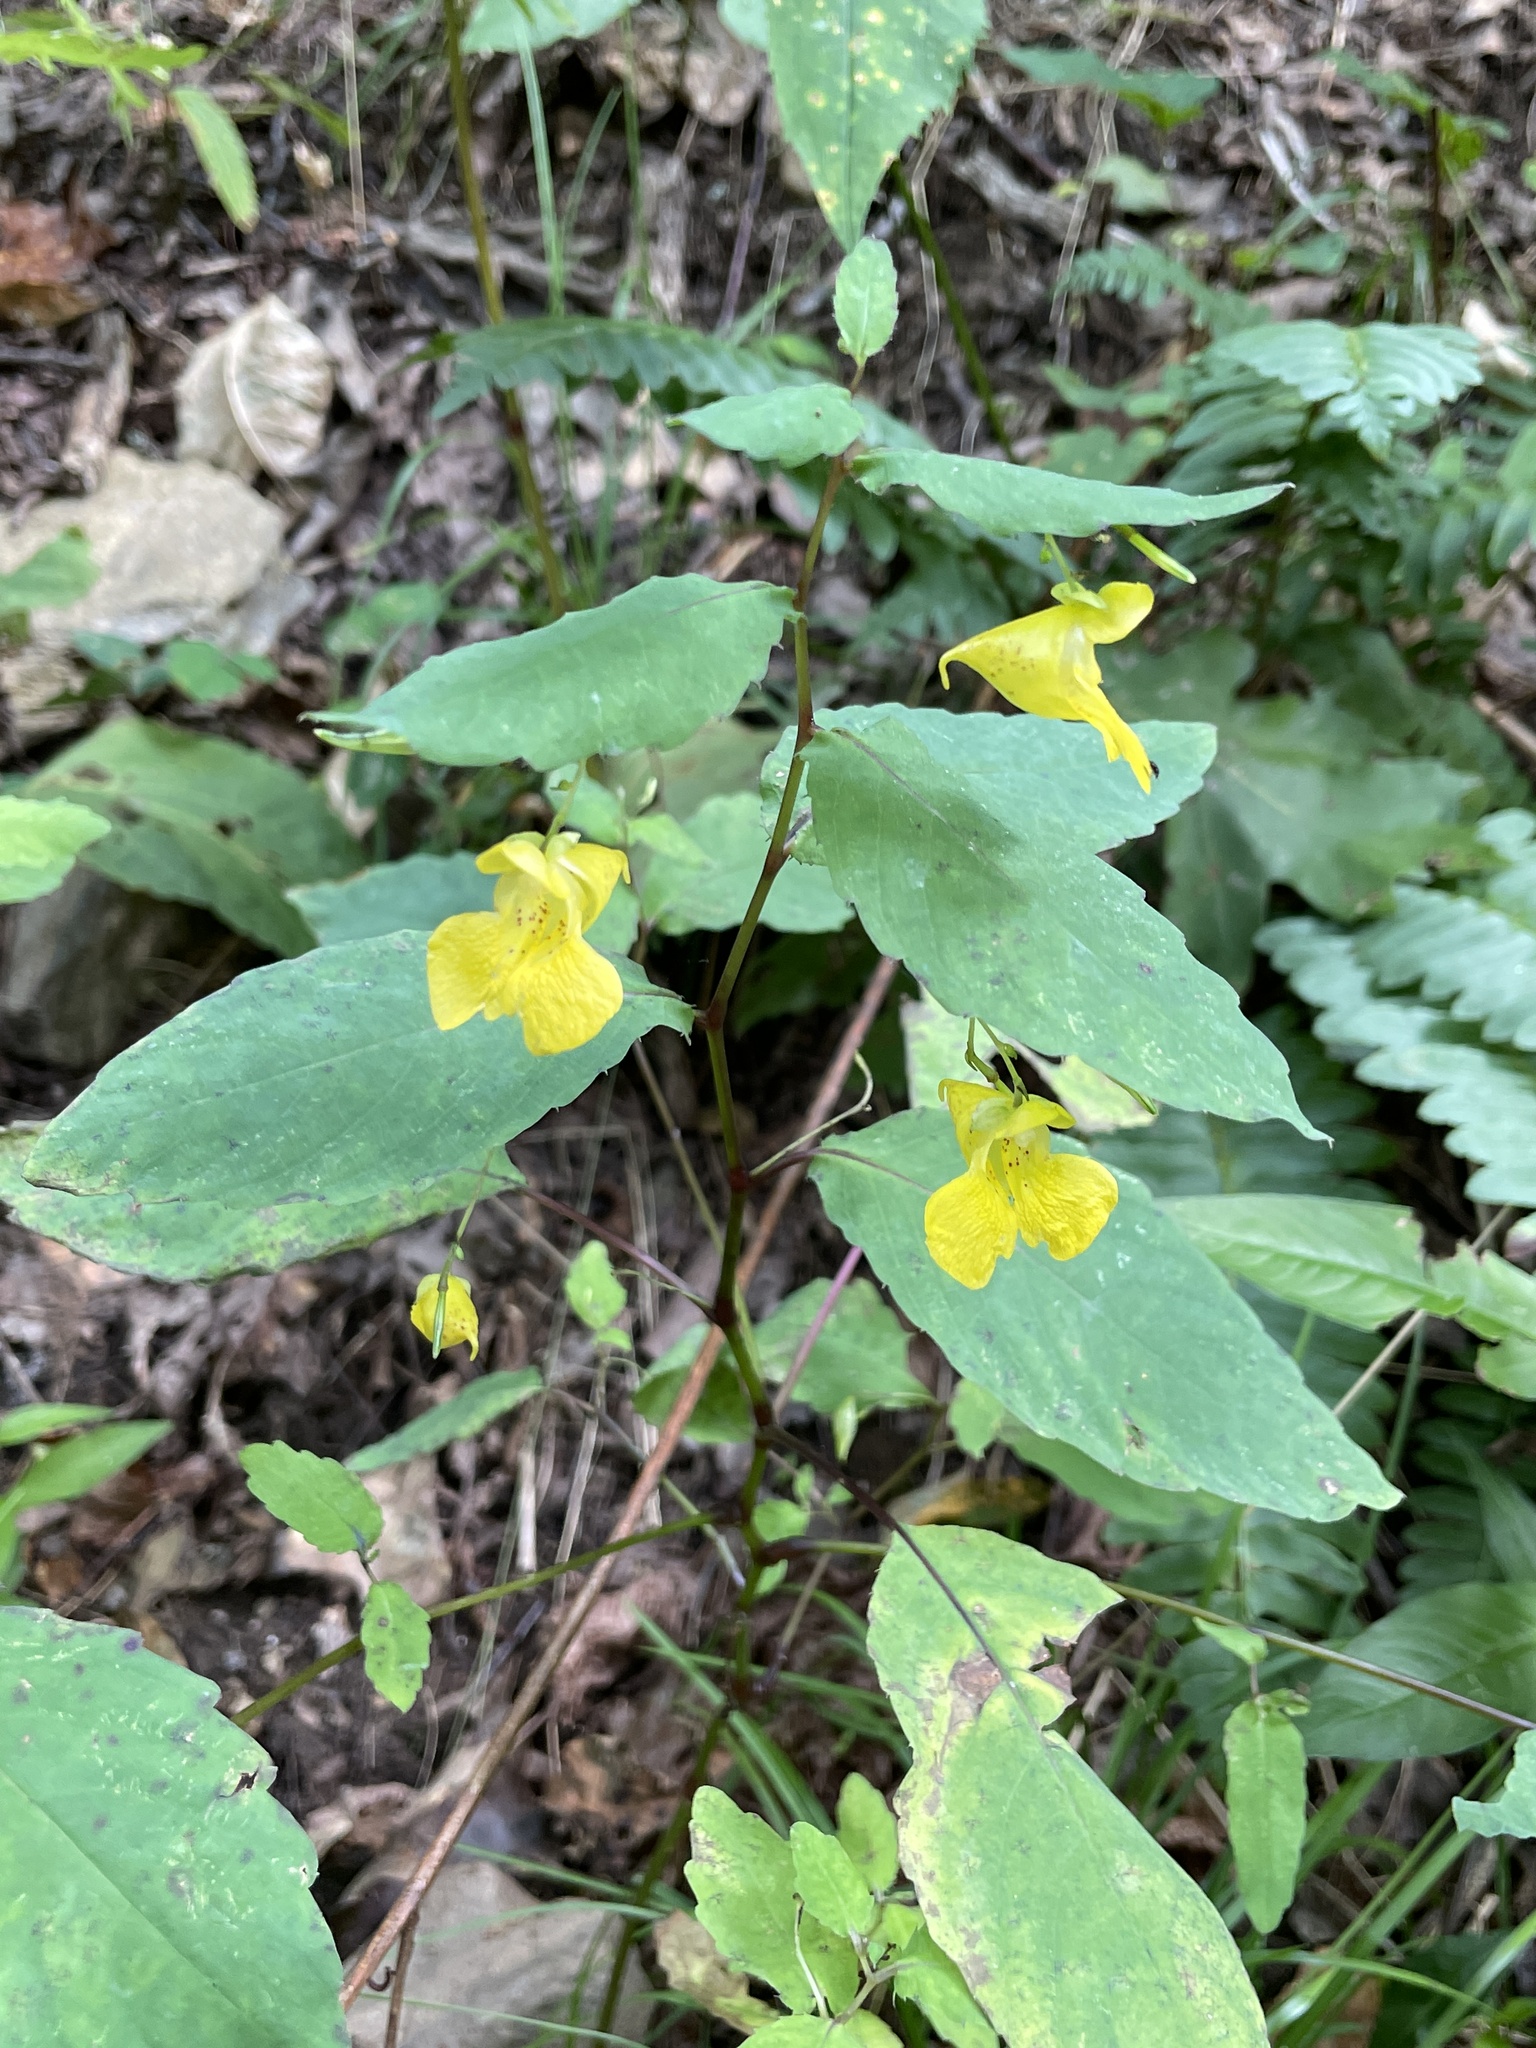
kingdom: Plantae
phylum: Tracheophyta
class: Magnoliopsida
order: Ericales
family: Balsaminaceae
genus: Impatiens
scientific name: Impatiens pallida
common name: Pale snapweed
